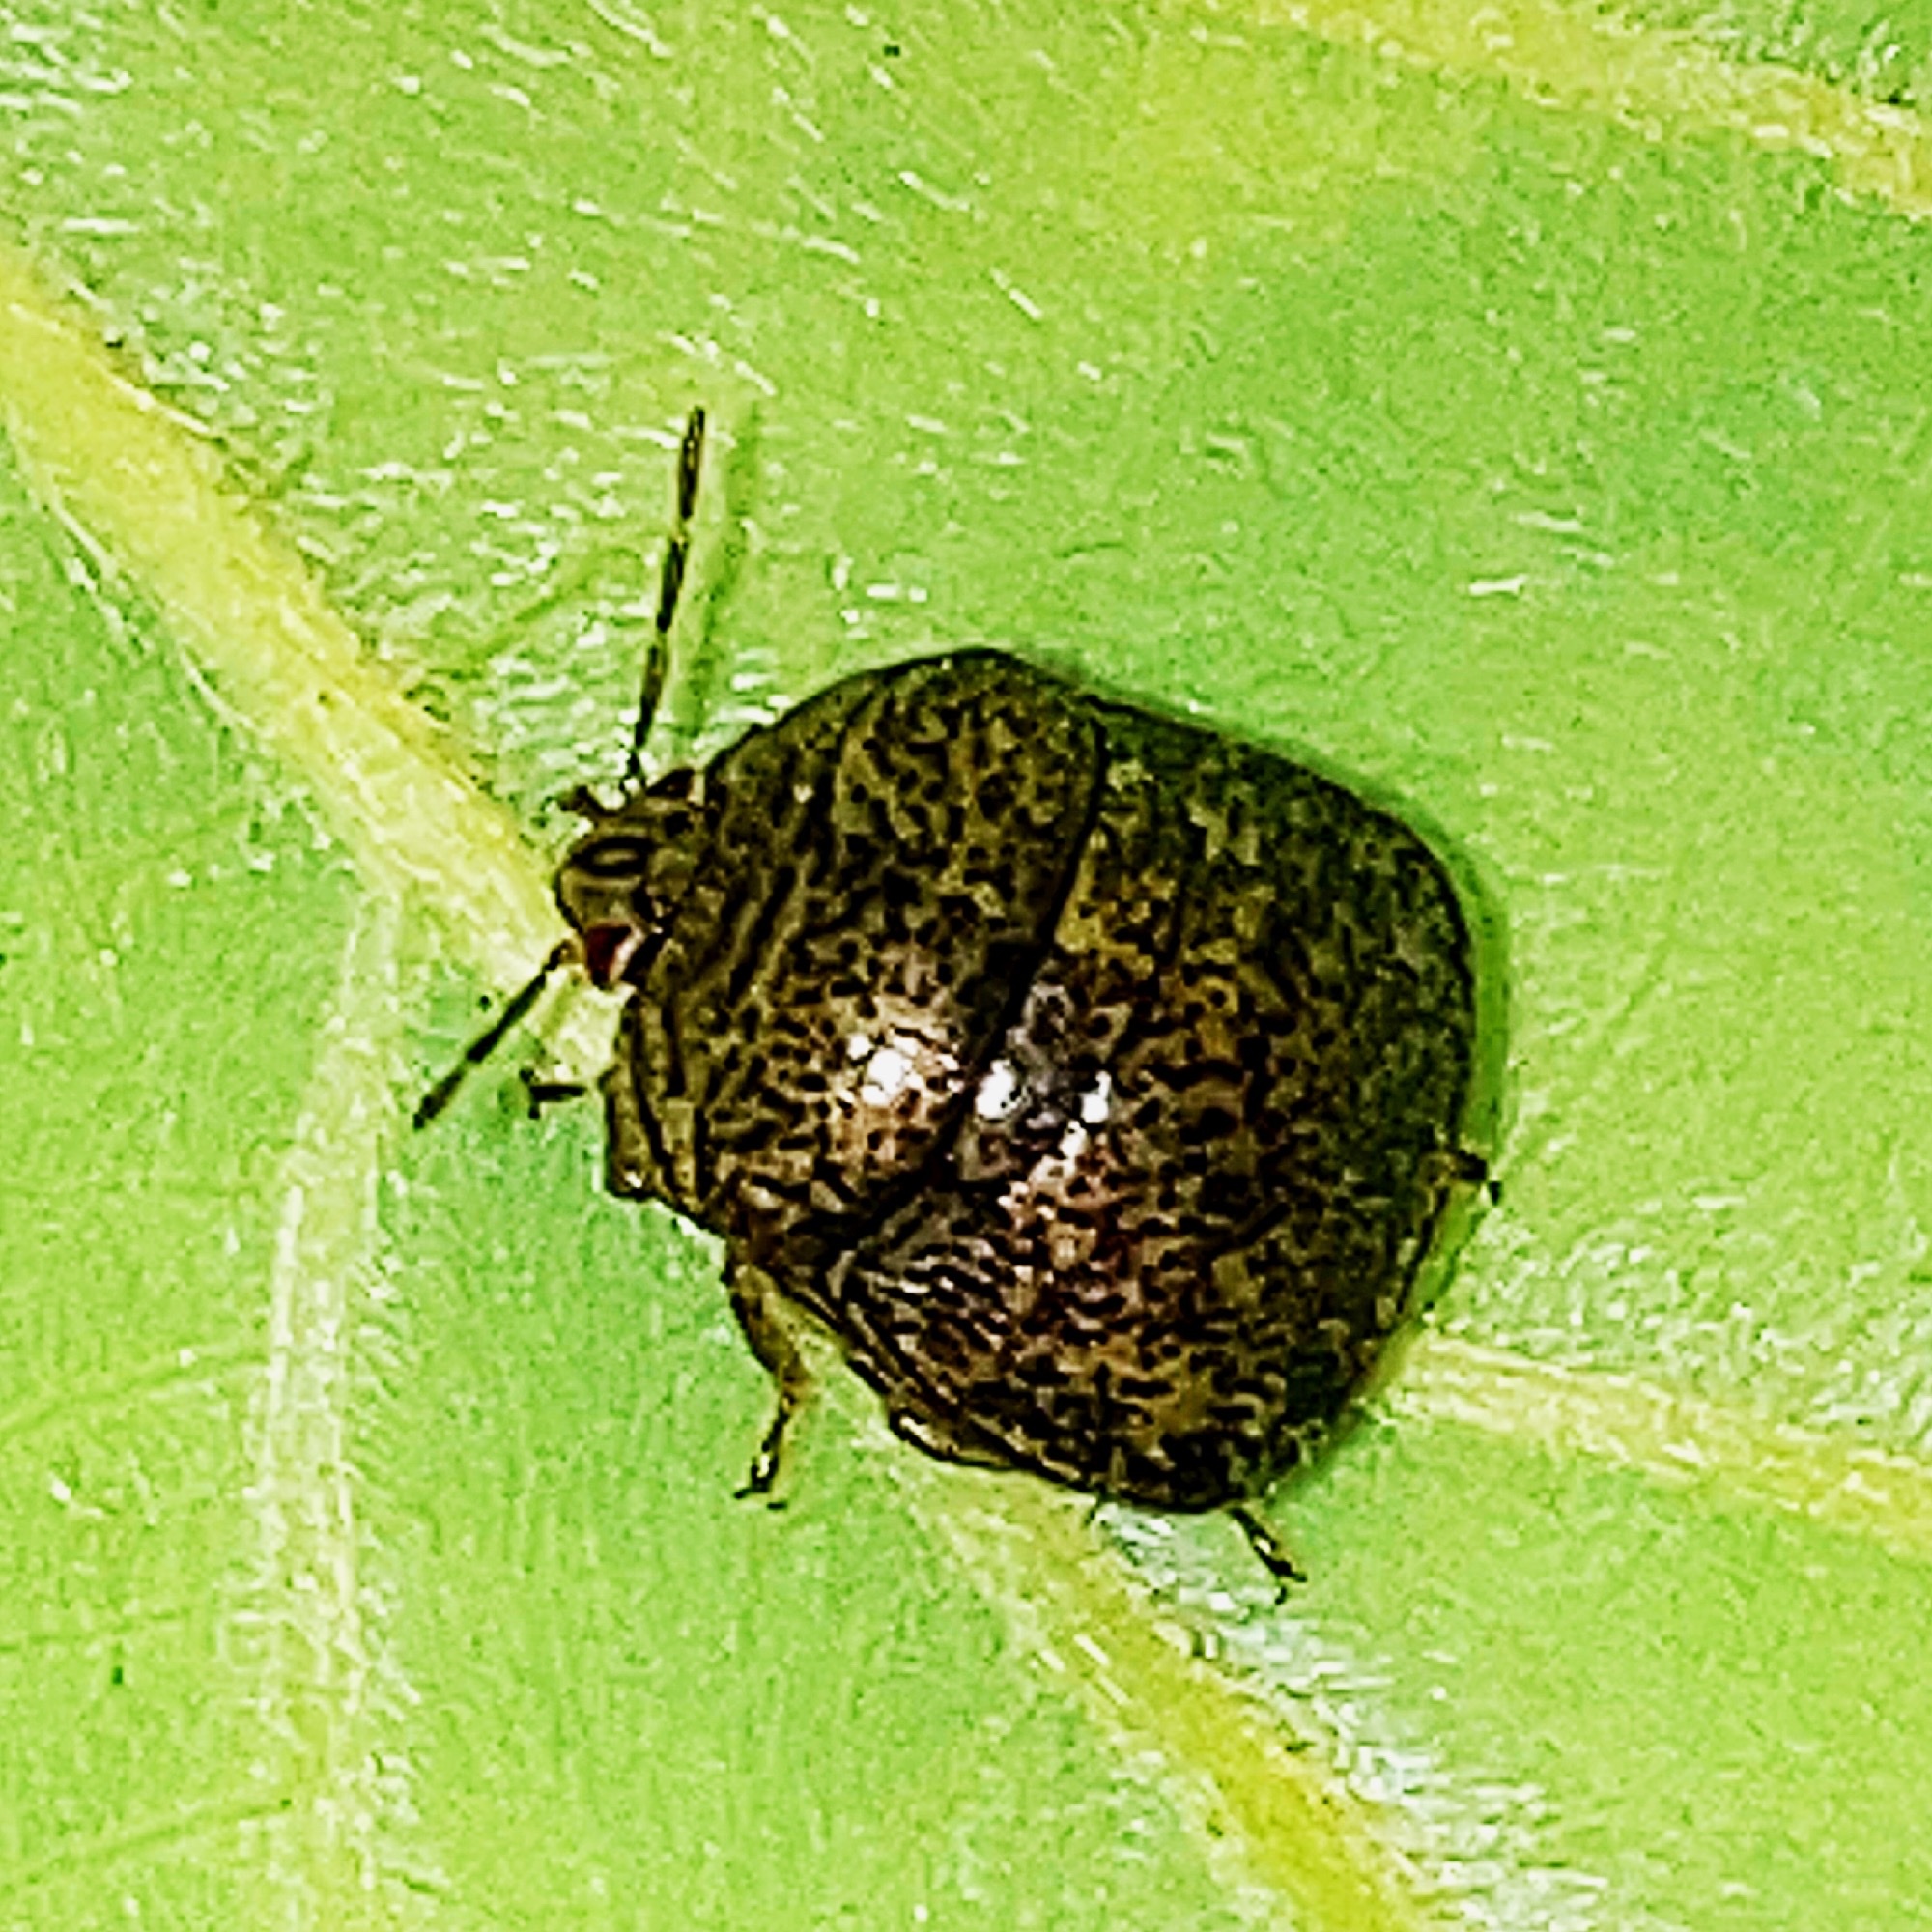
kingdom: Animalia
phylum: Arthropoda
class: Insecta
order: Hemiptera
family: Plataspidae
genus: Megacopta
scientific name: Megacopta cribraria
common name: Bean plataspid
